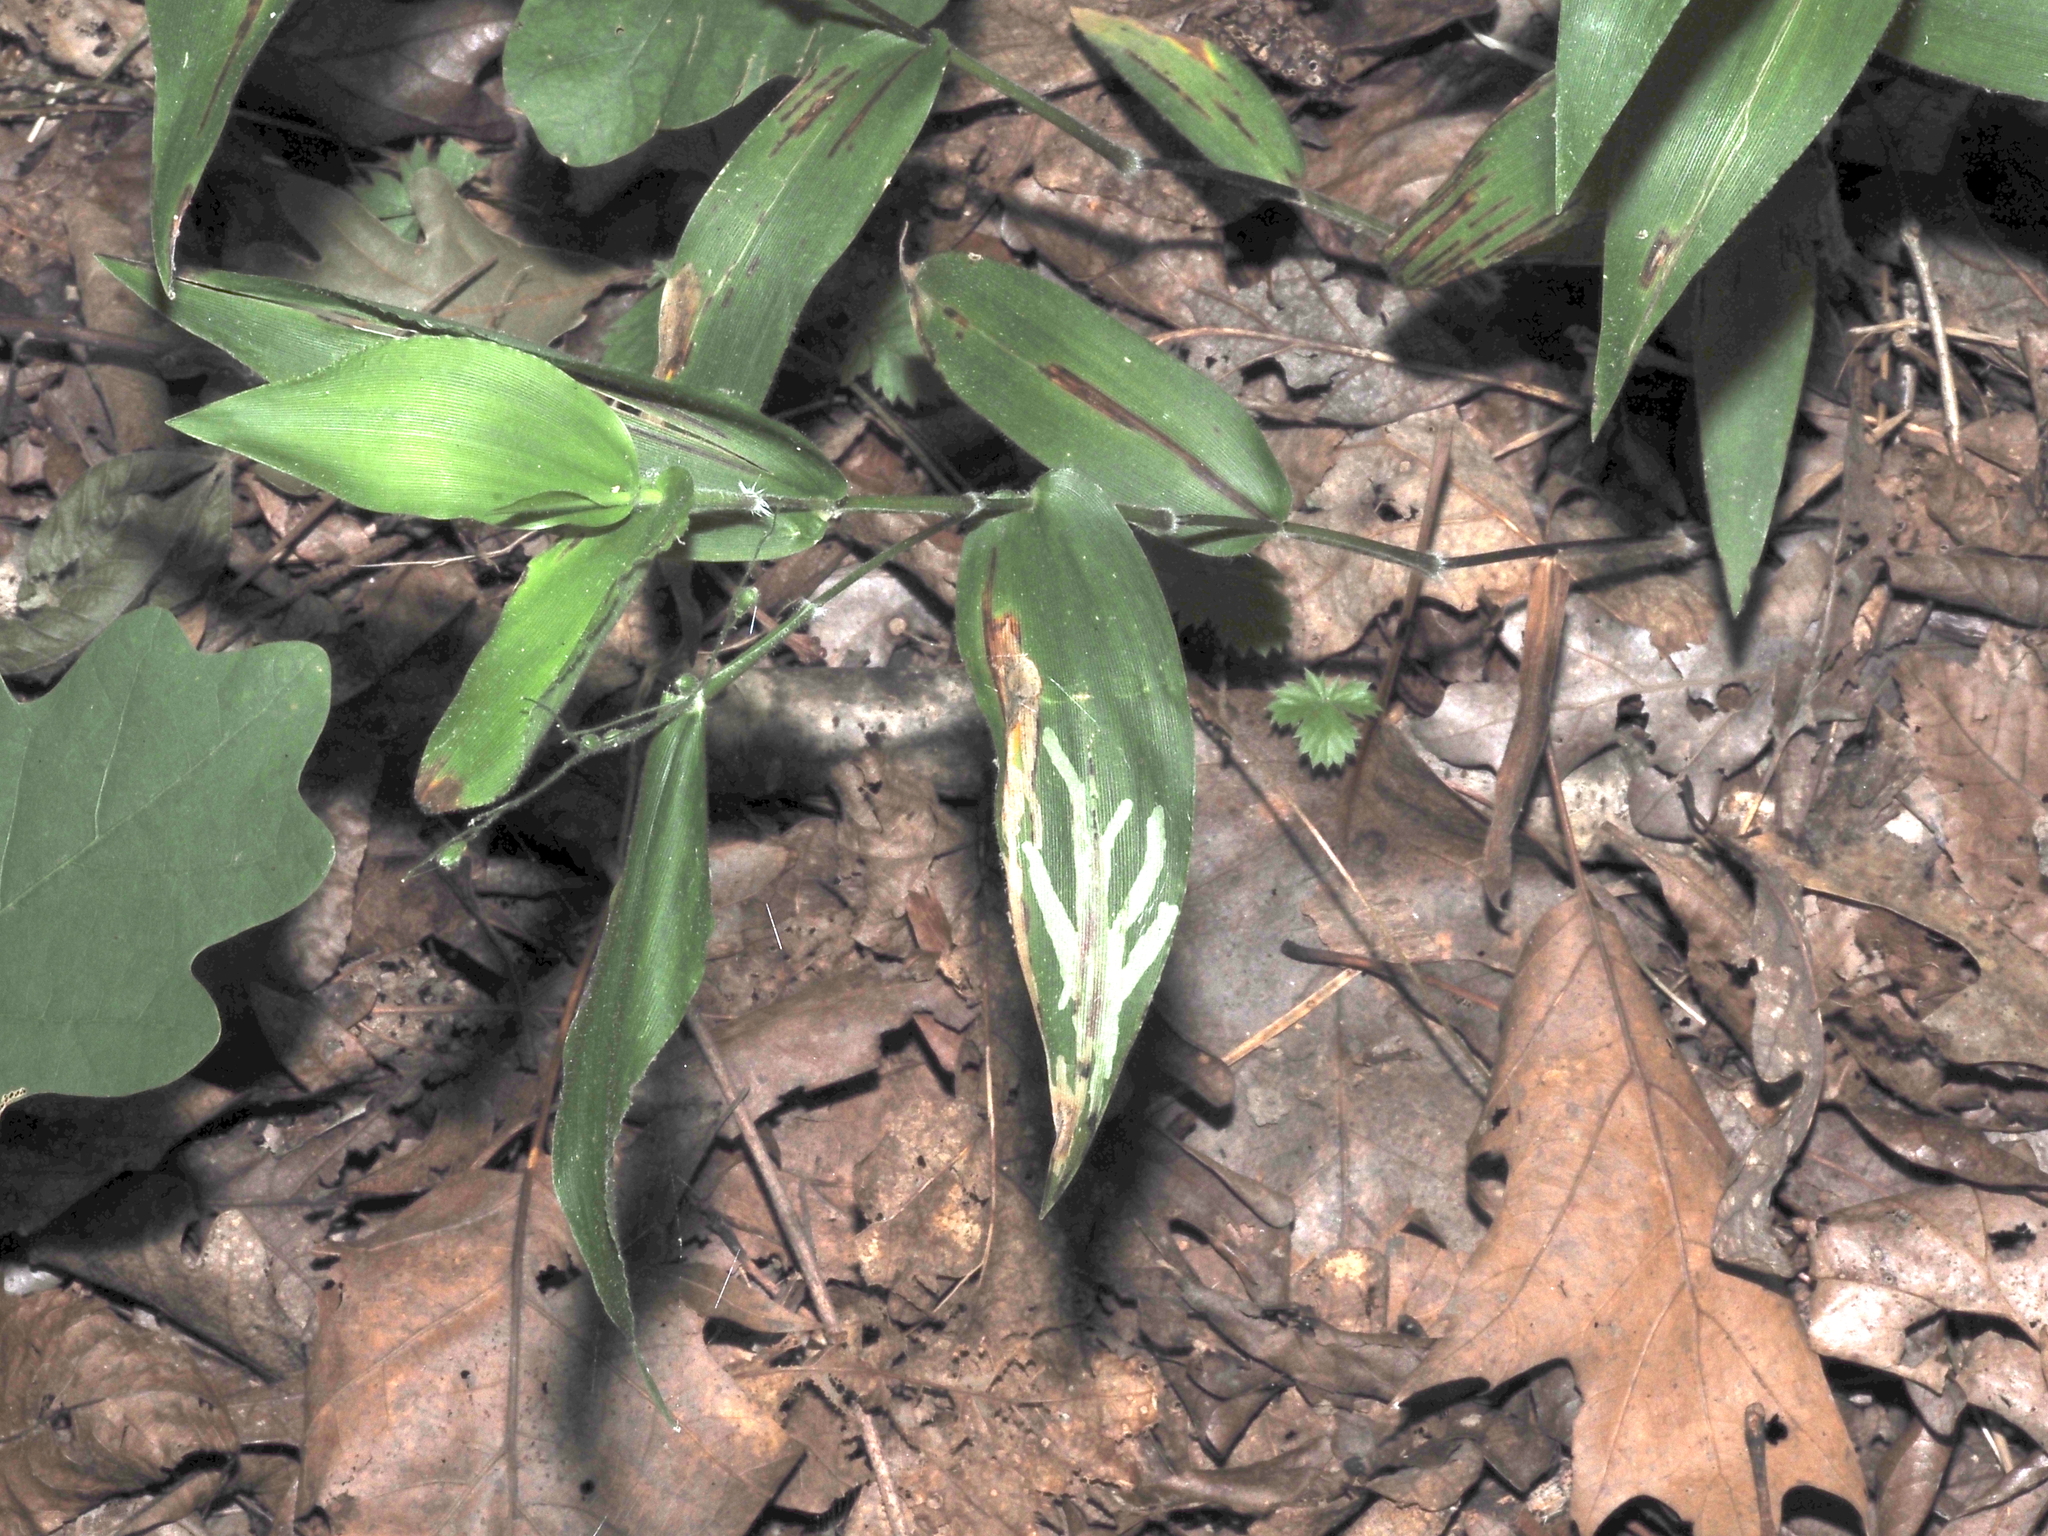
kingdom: Animalia
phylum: Arthropoda
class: Insecta
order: Diptera
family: Agromyzidae
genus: Cerodontha
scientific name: Cerodontha angulata
